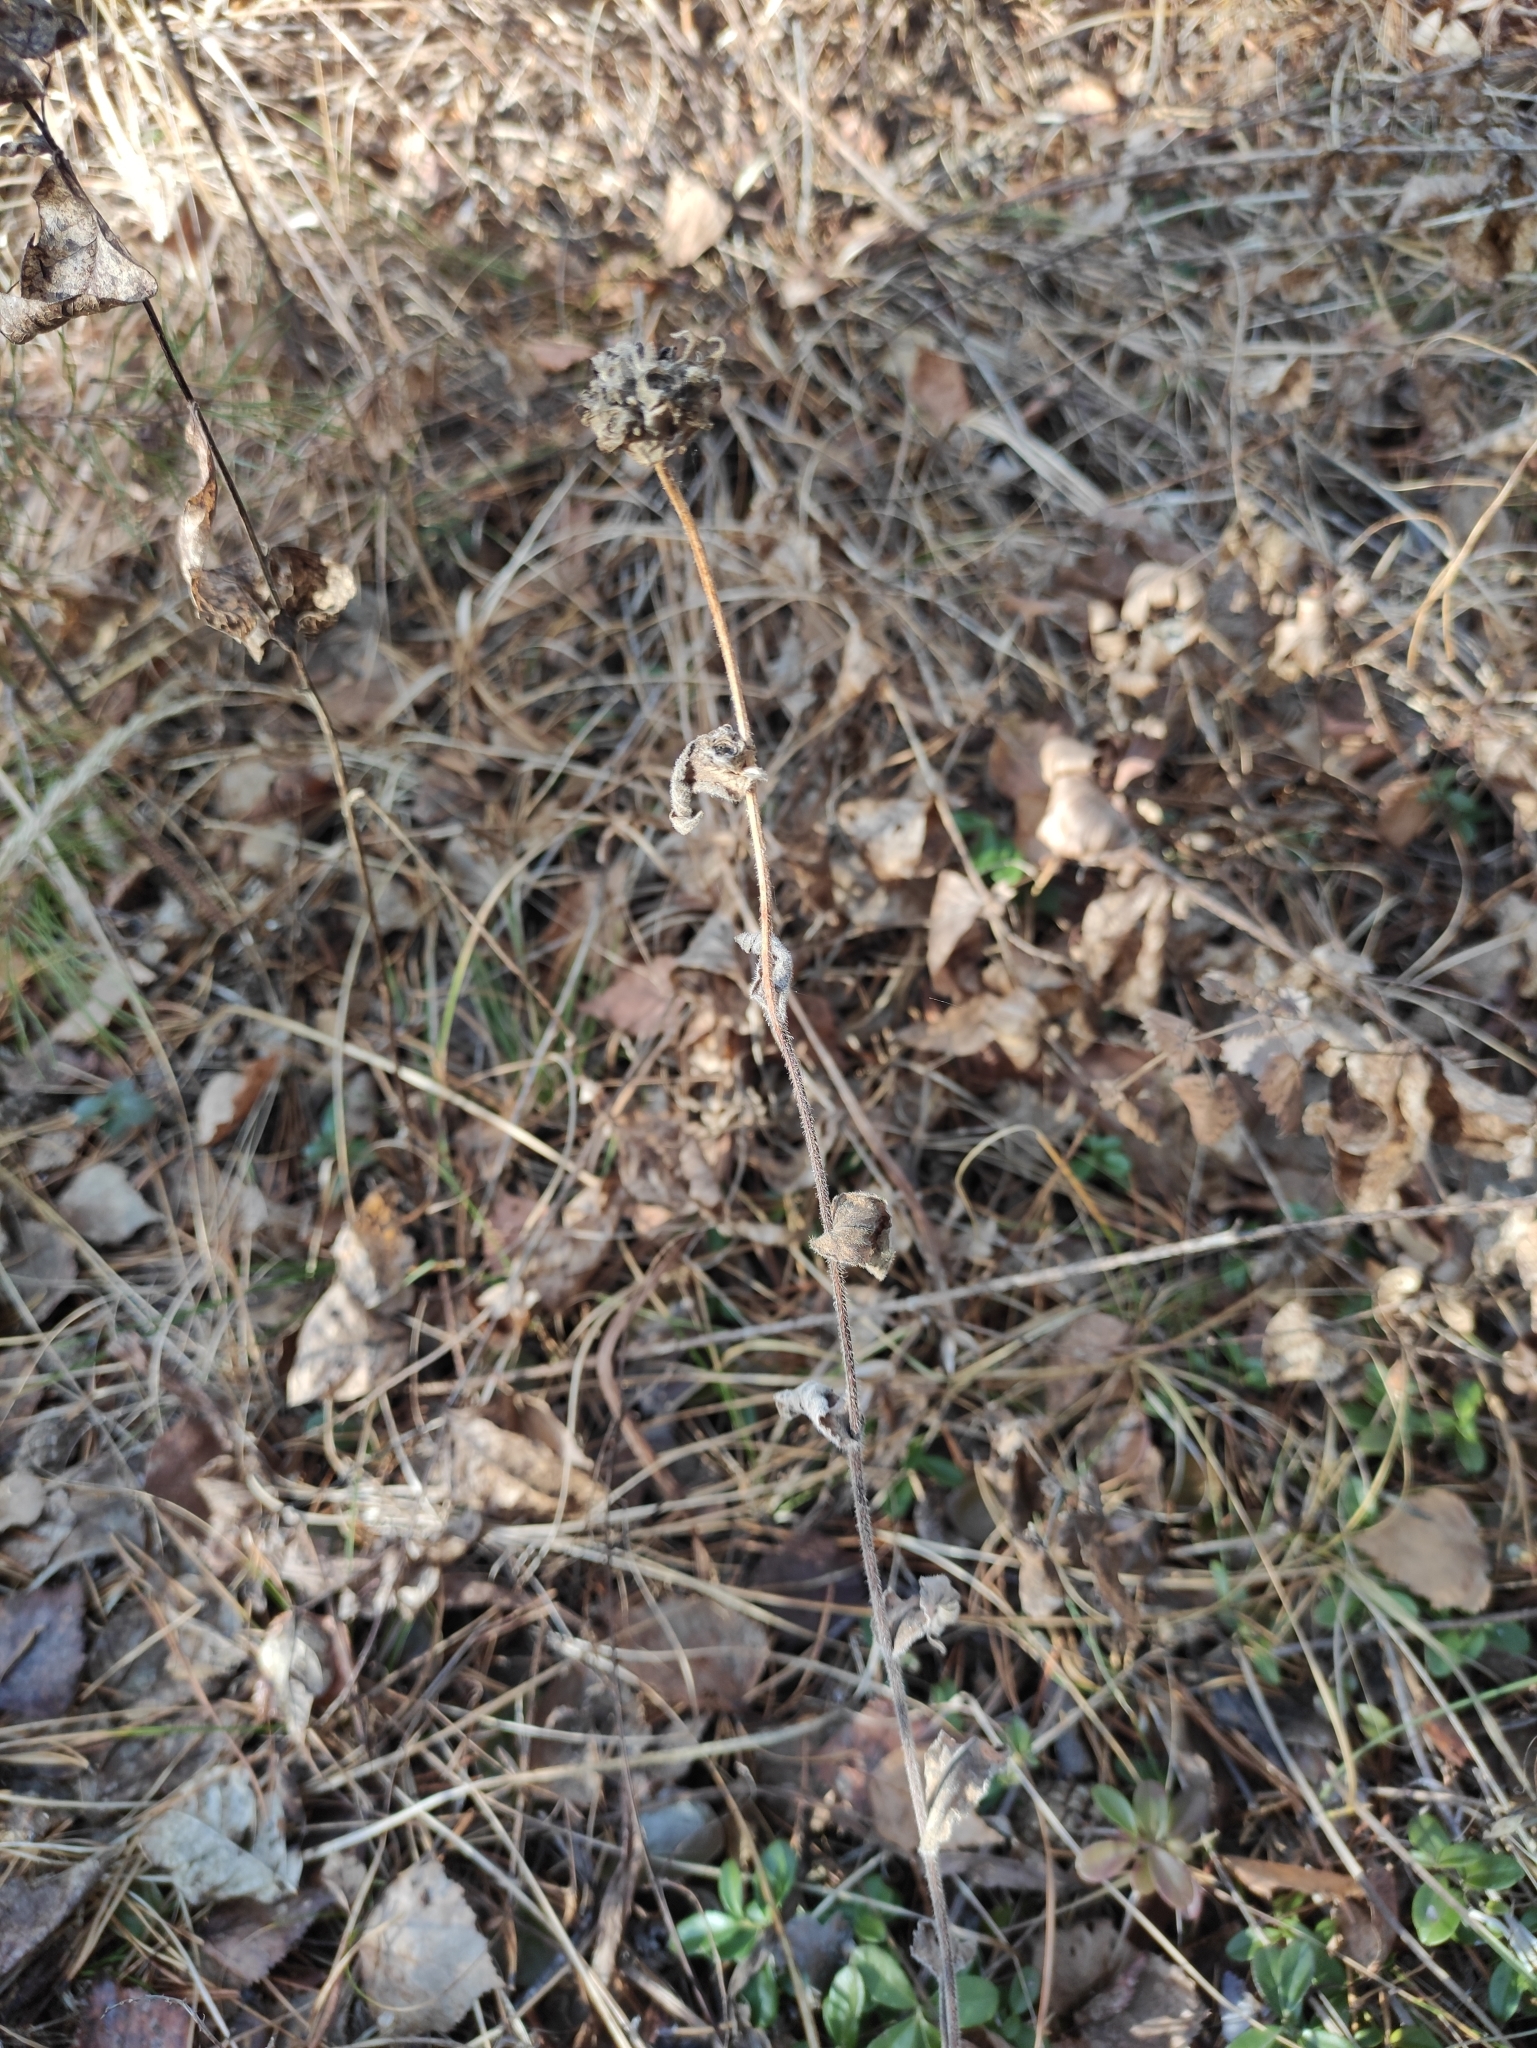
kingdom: Plantae
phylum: Tracheophyta
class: Magnoliopsida
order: Asterales
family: Campanulaceae
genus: Campanula
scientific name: Campanula glomerata
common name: Clustered bellflower
